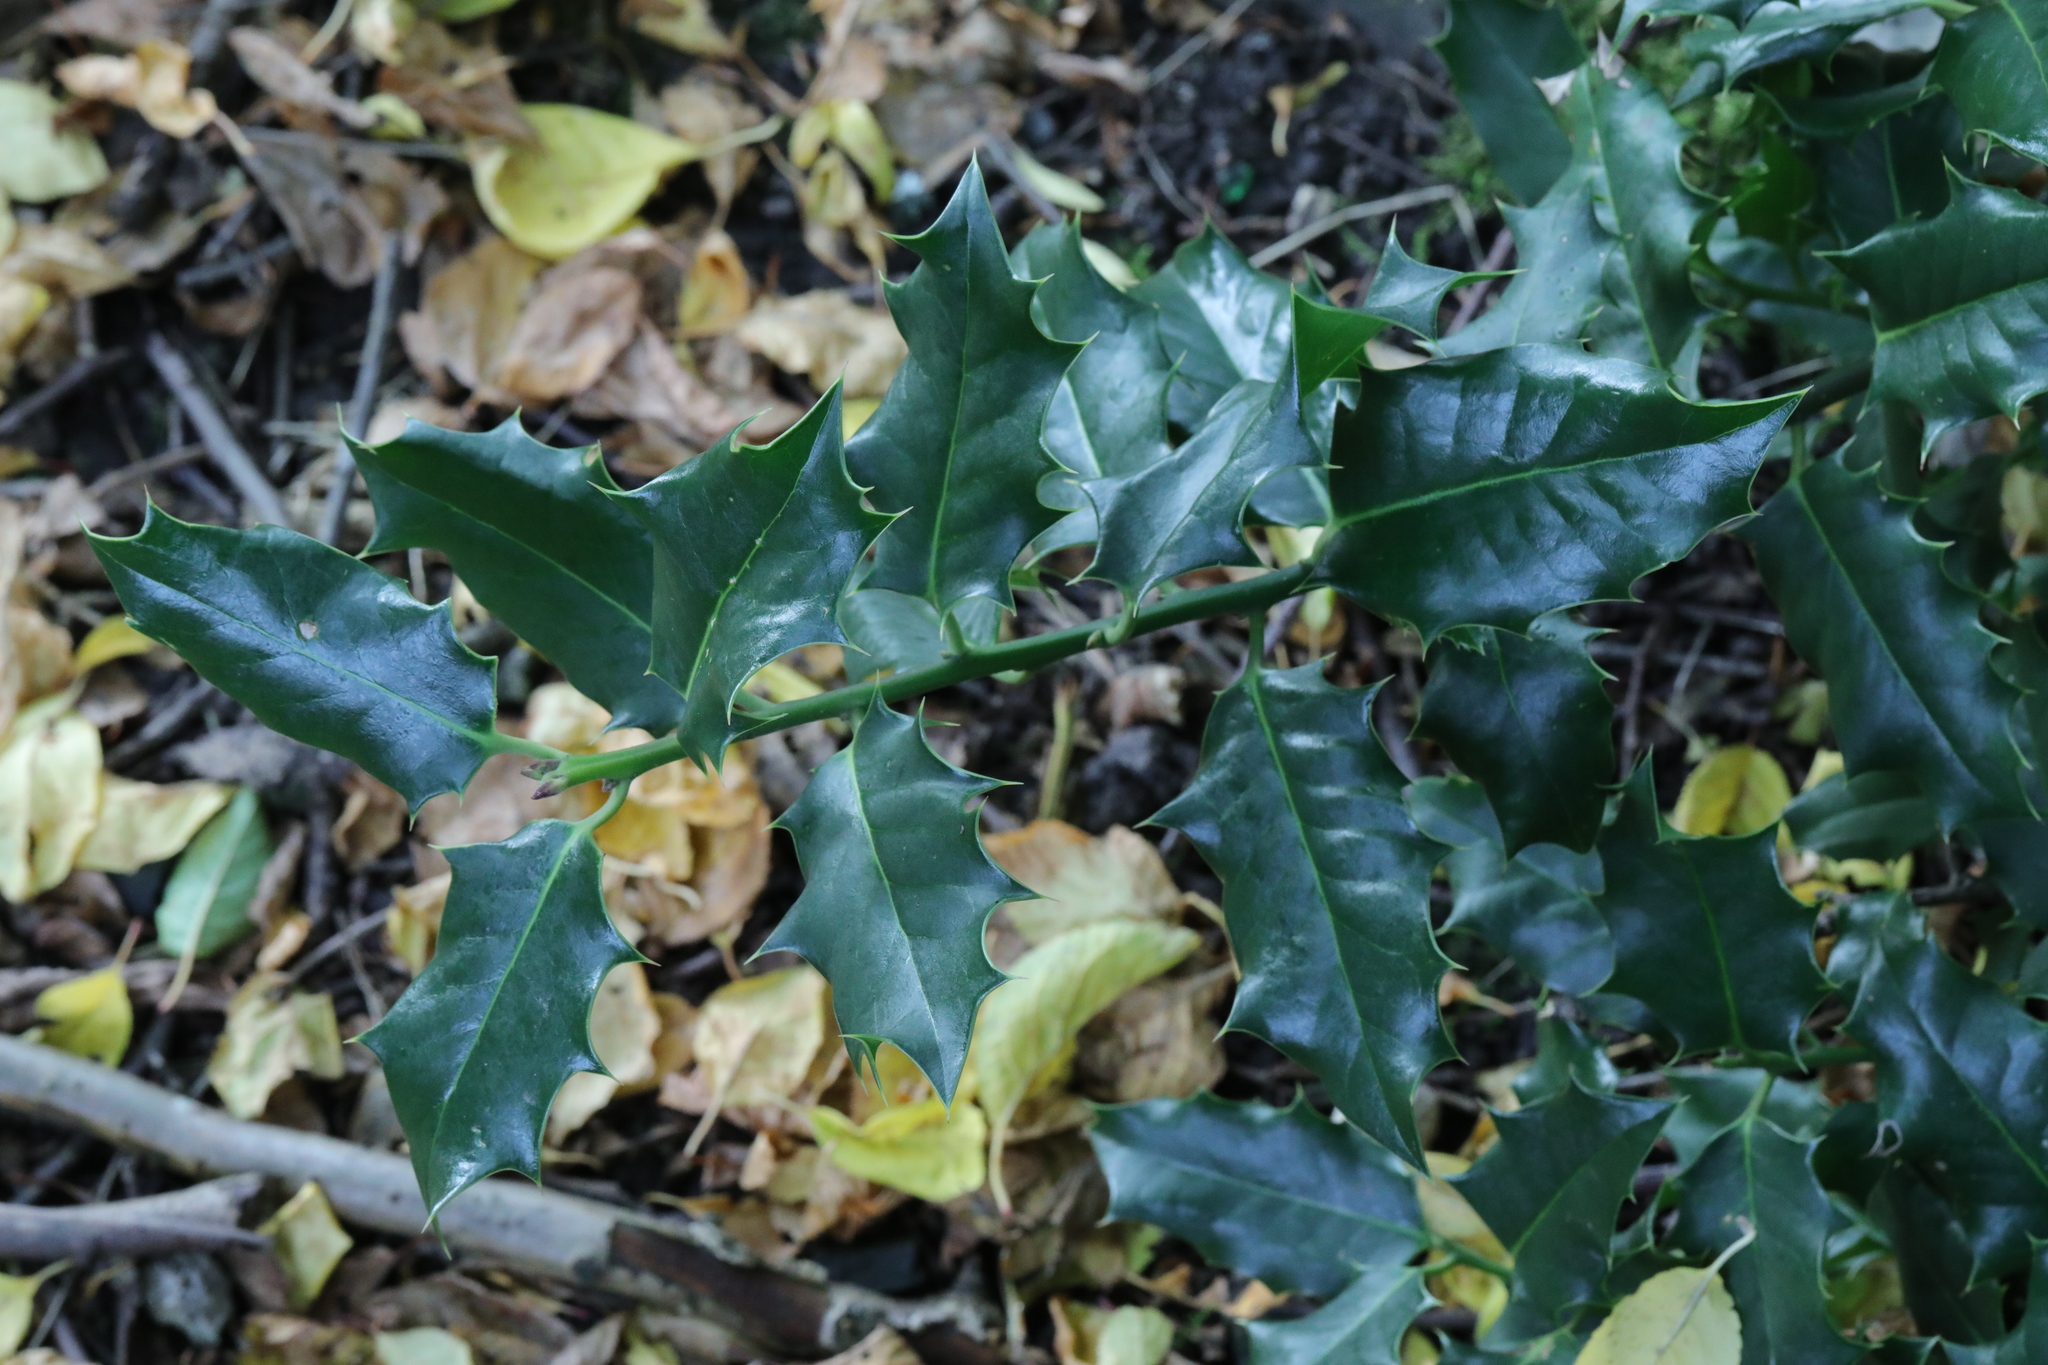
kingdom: Plantae
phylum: Tracheophyta
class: Magnoliopsida
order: Aquifoliales
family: Aquifoliaceae
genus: Ilex
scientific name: Ilex aquifolium
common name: English holly
